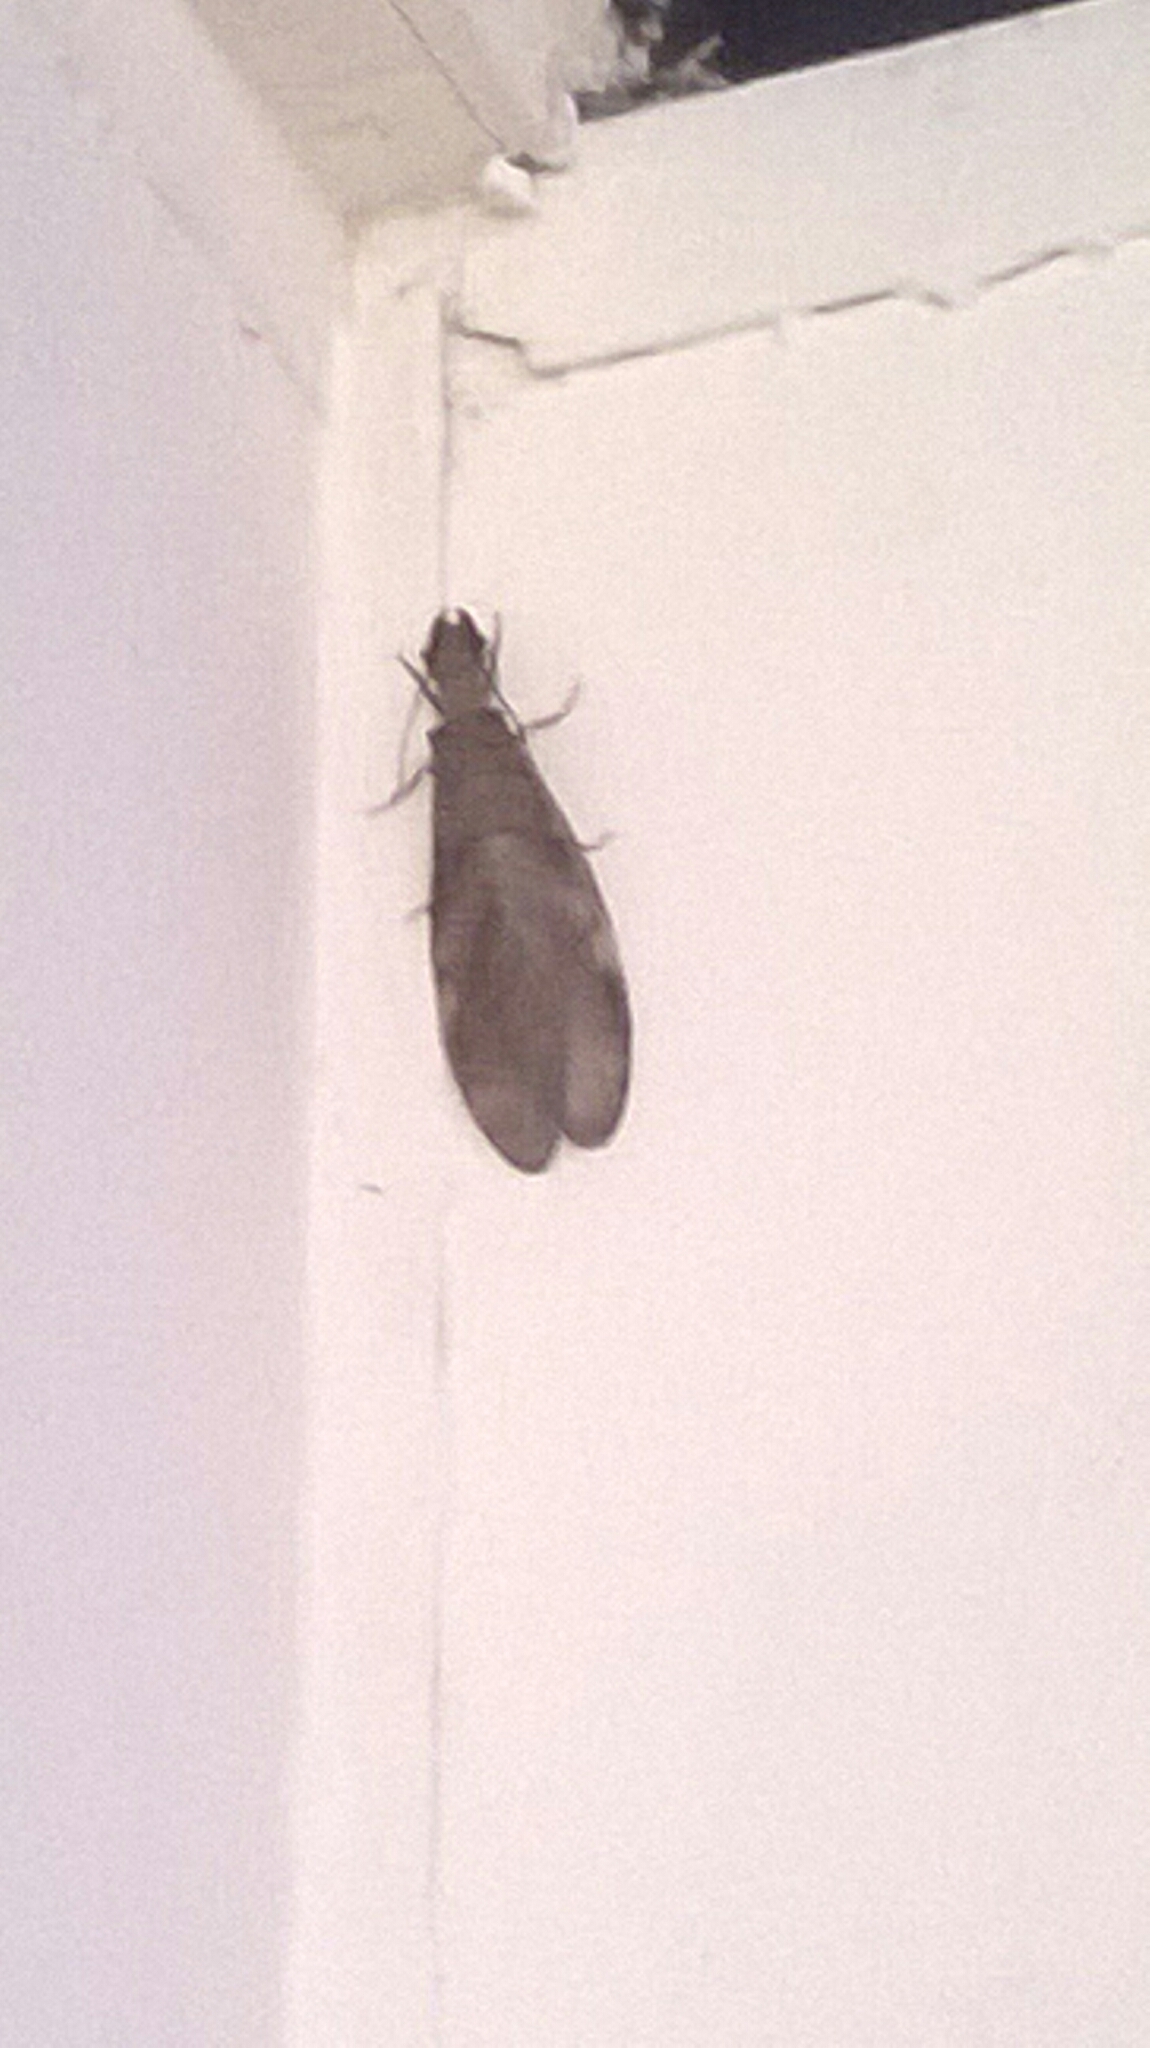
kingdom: Animalia
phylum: Arthropoda
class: Insecta
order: Megaloptera
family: Corydalidae
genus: Corydalus
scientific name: Corydalus
